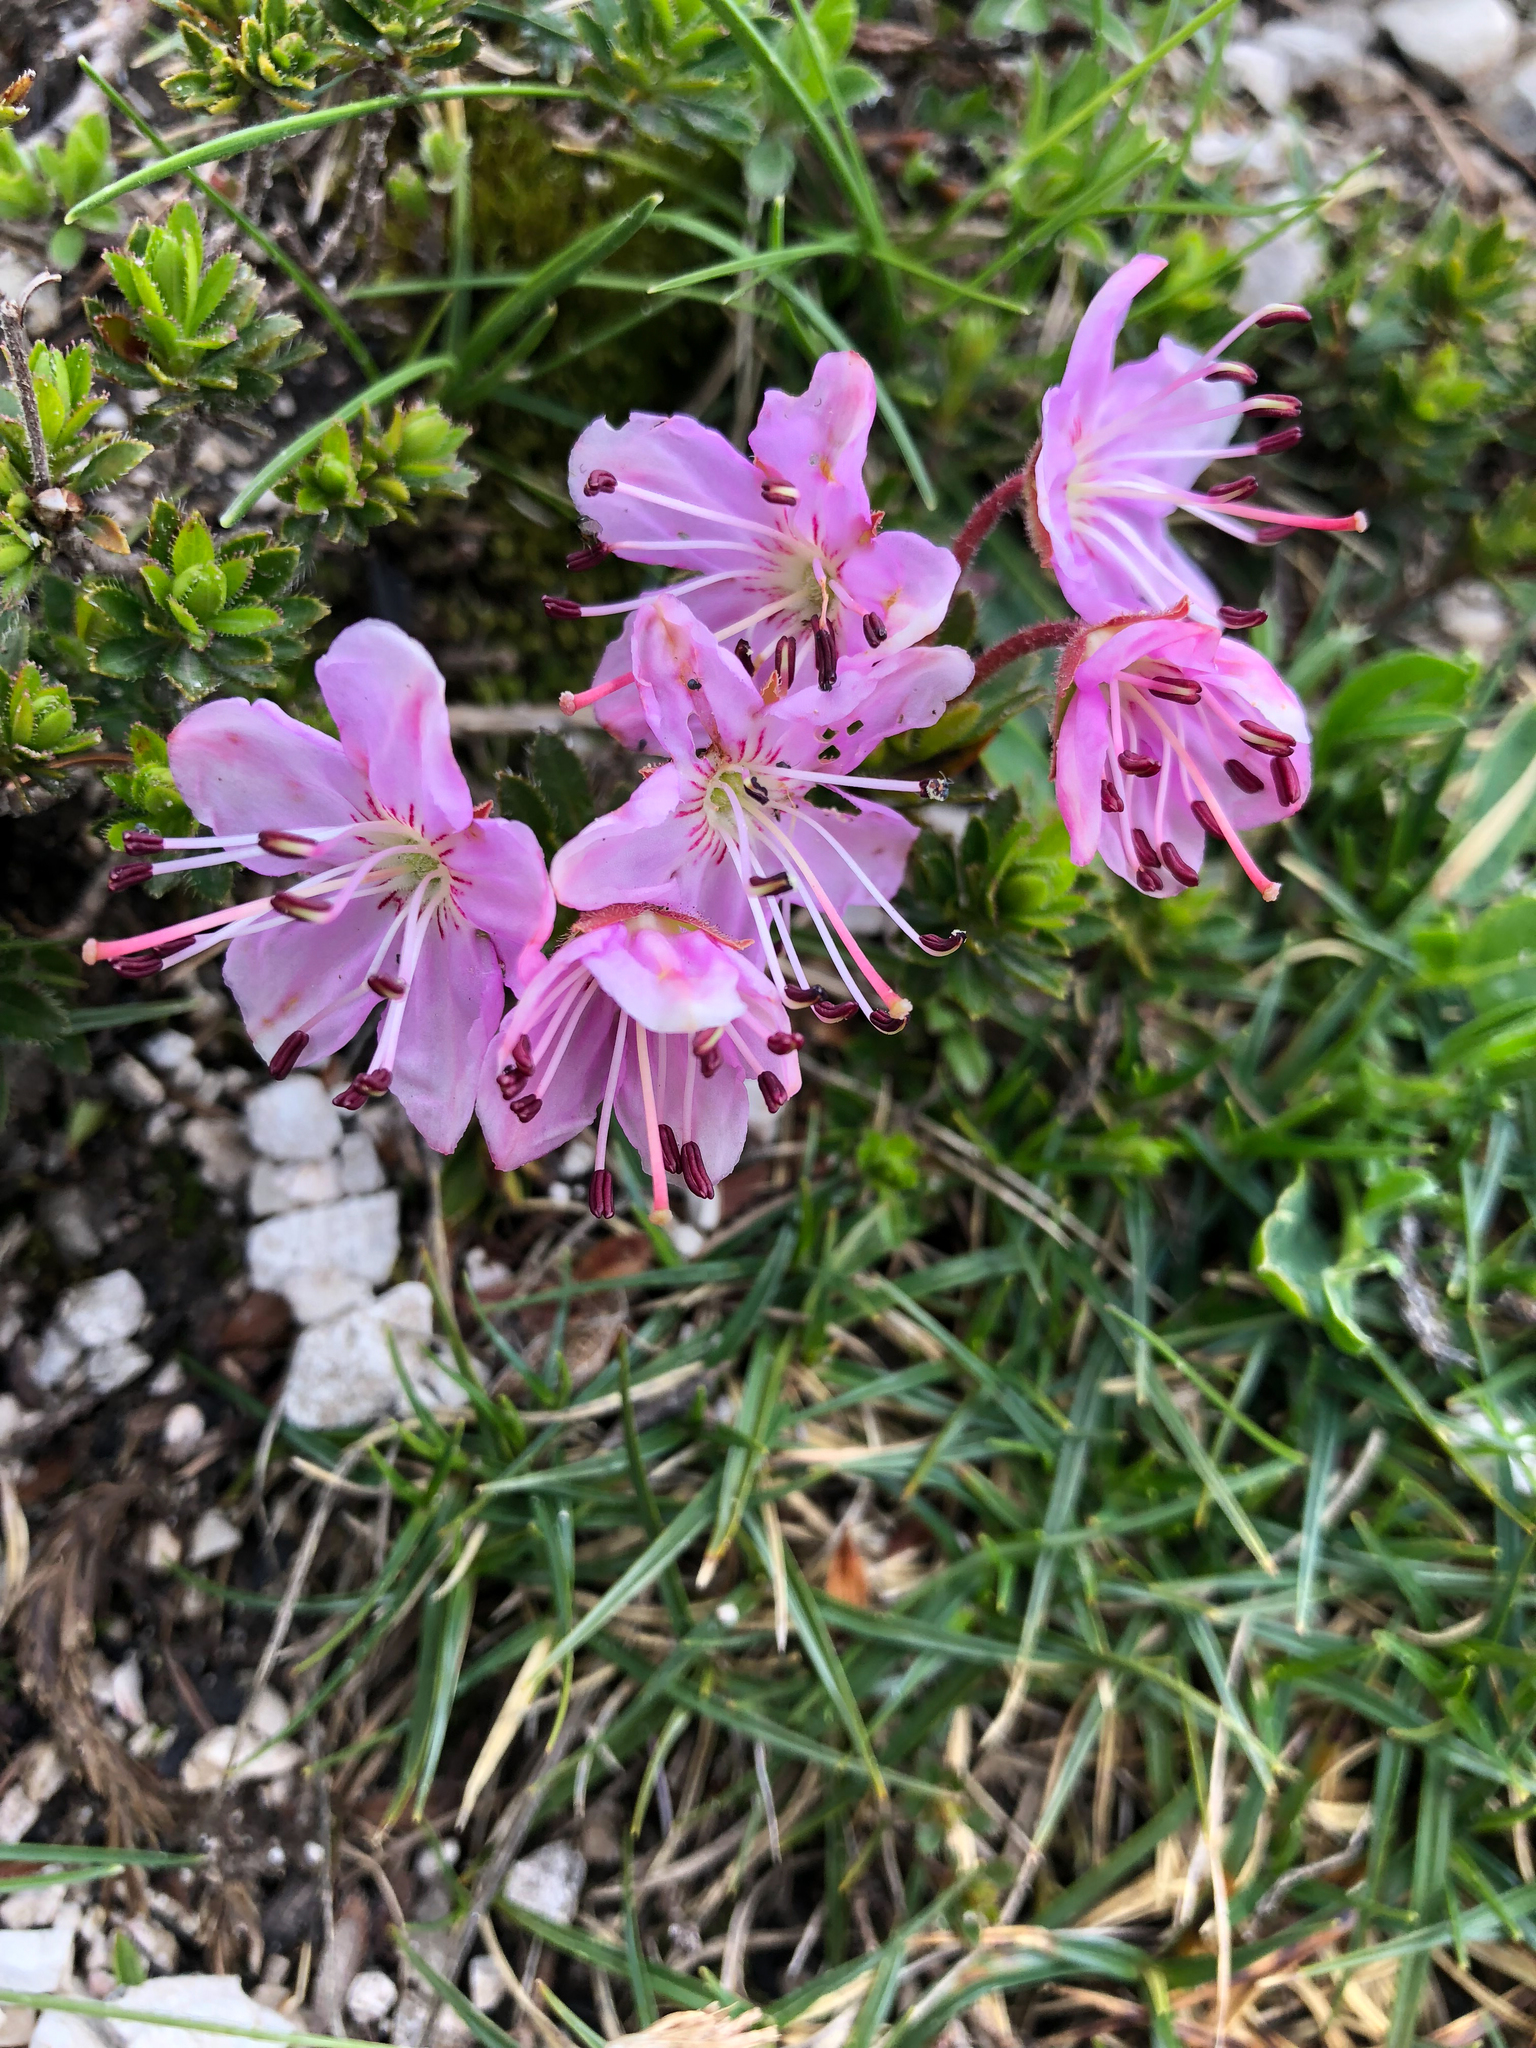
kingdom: Plantae
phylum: Tracheophyta
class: Magnoliopsida
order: Ericales
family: Ericaceae
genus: Rhodothamnus
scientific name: Rhodothamnus chamaecistus
